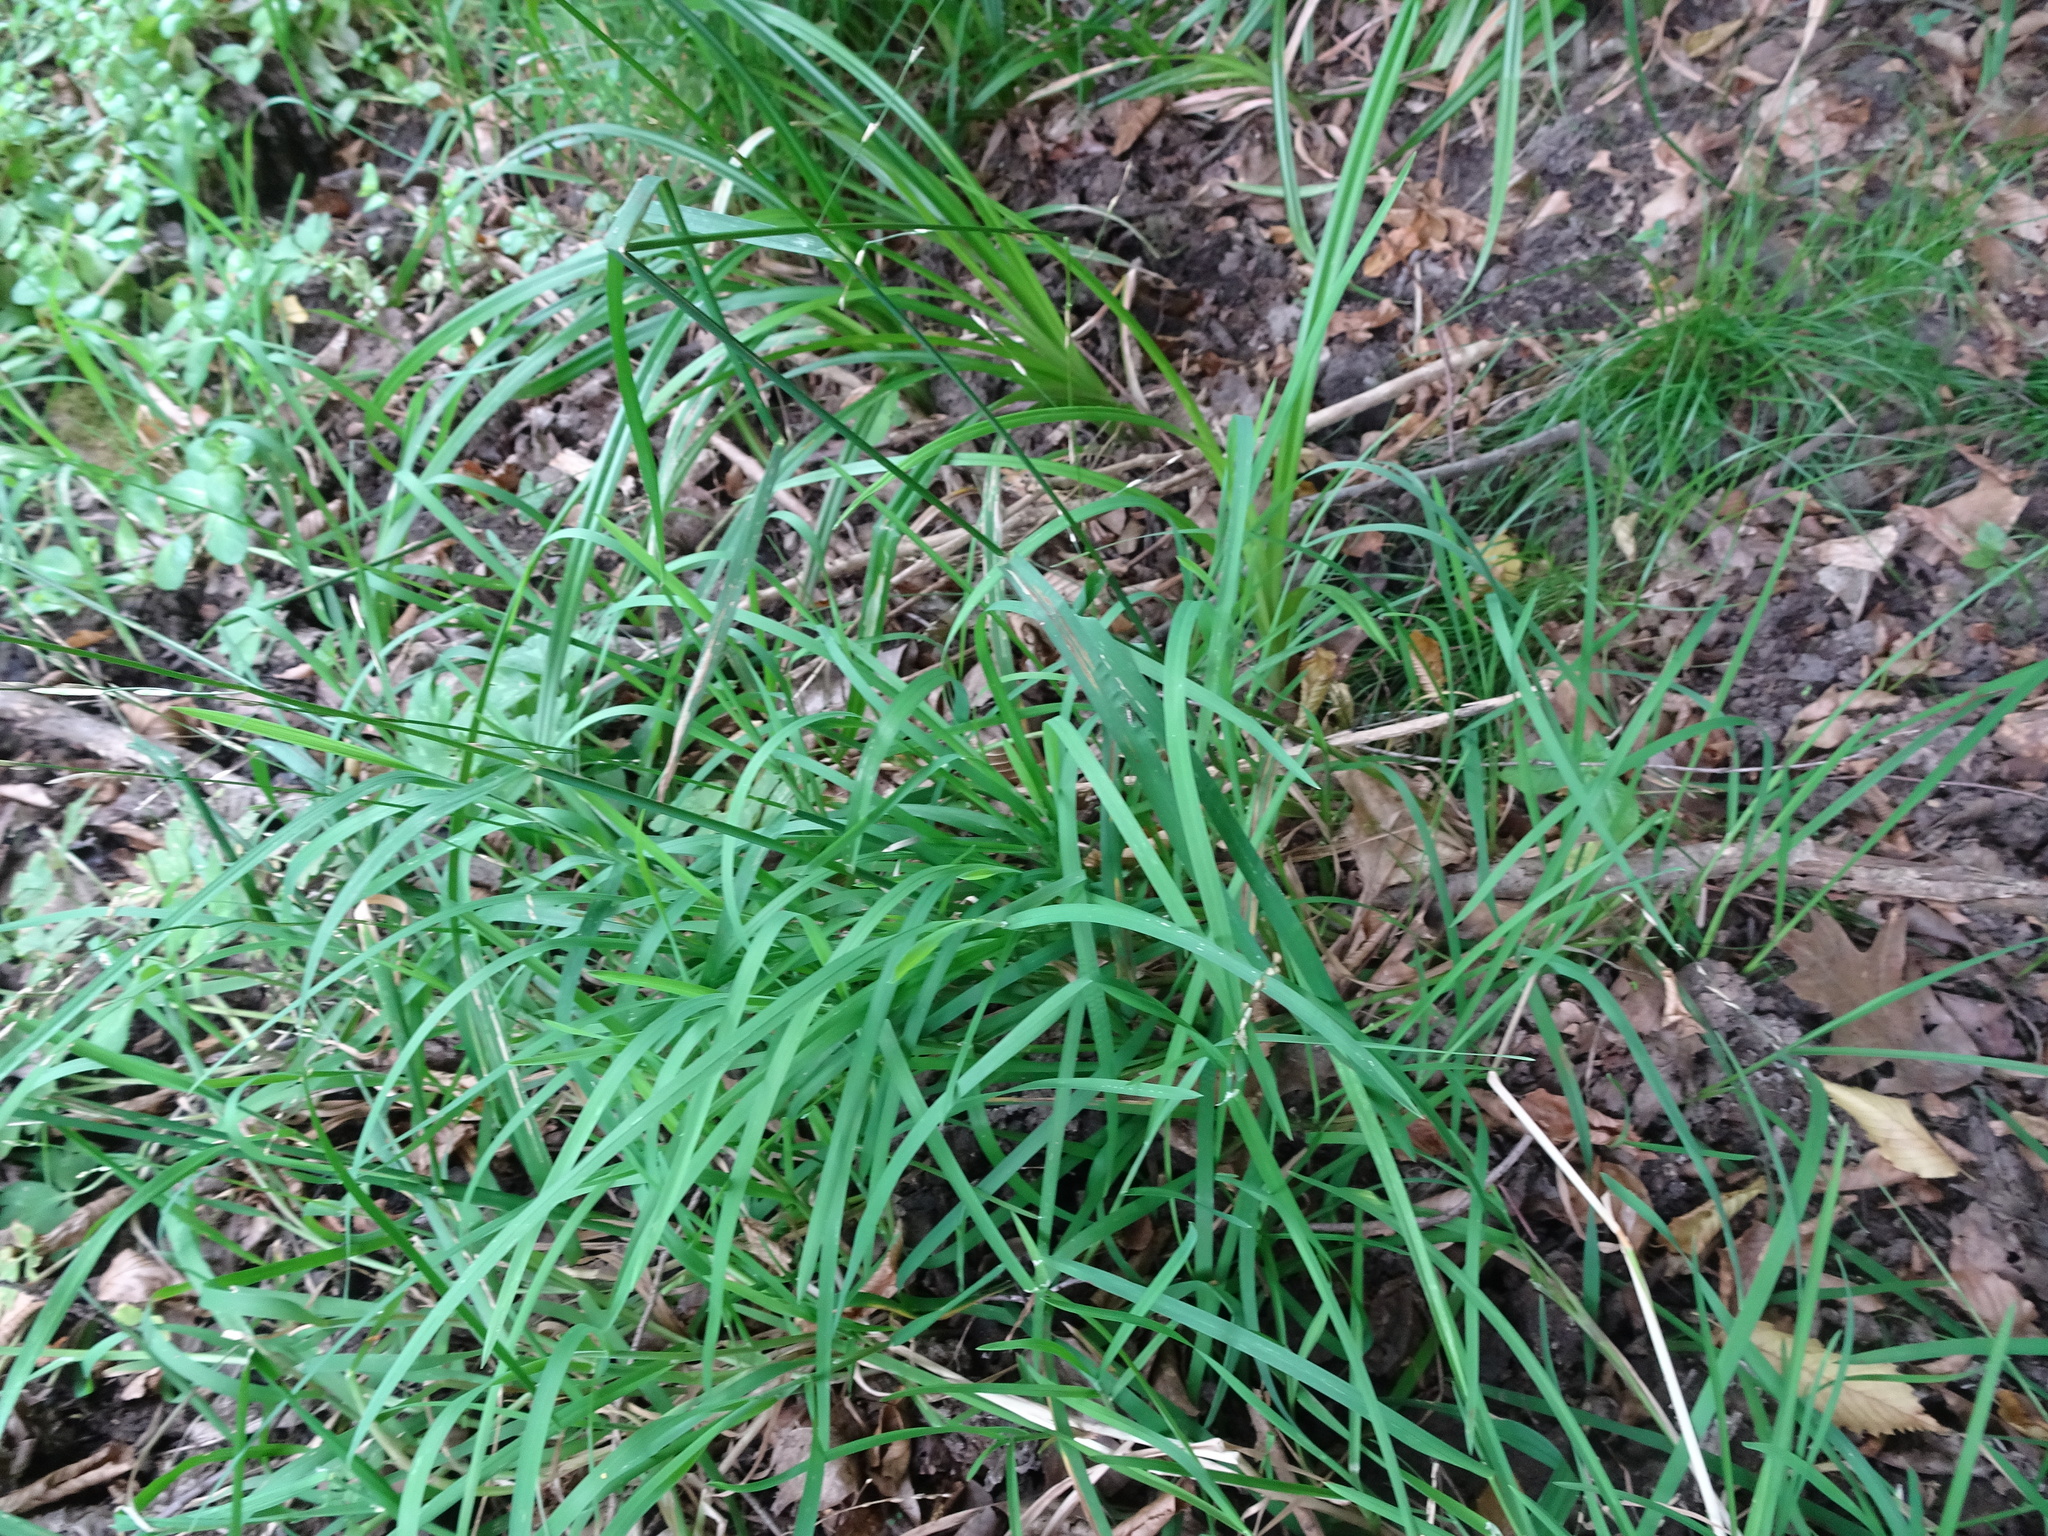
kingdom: Plantae
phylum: Tracheophyta
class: Liliopsida
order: Poales
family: Poaceae
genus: Melica
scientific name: Melica uniflora
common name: Wood melick
